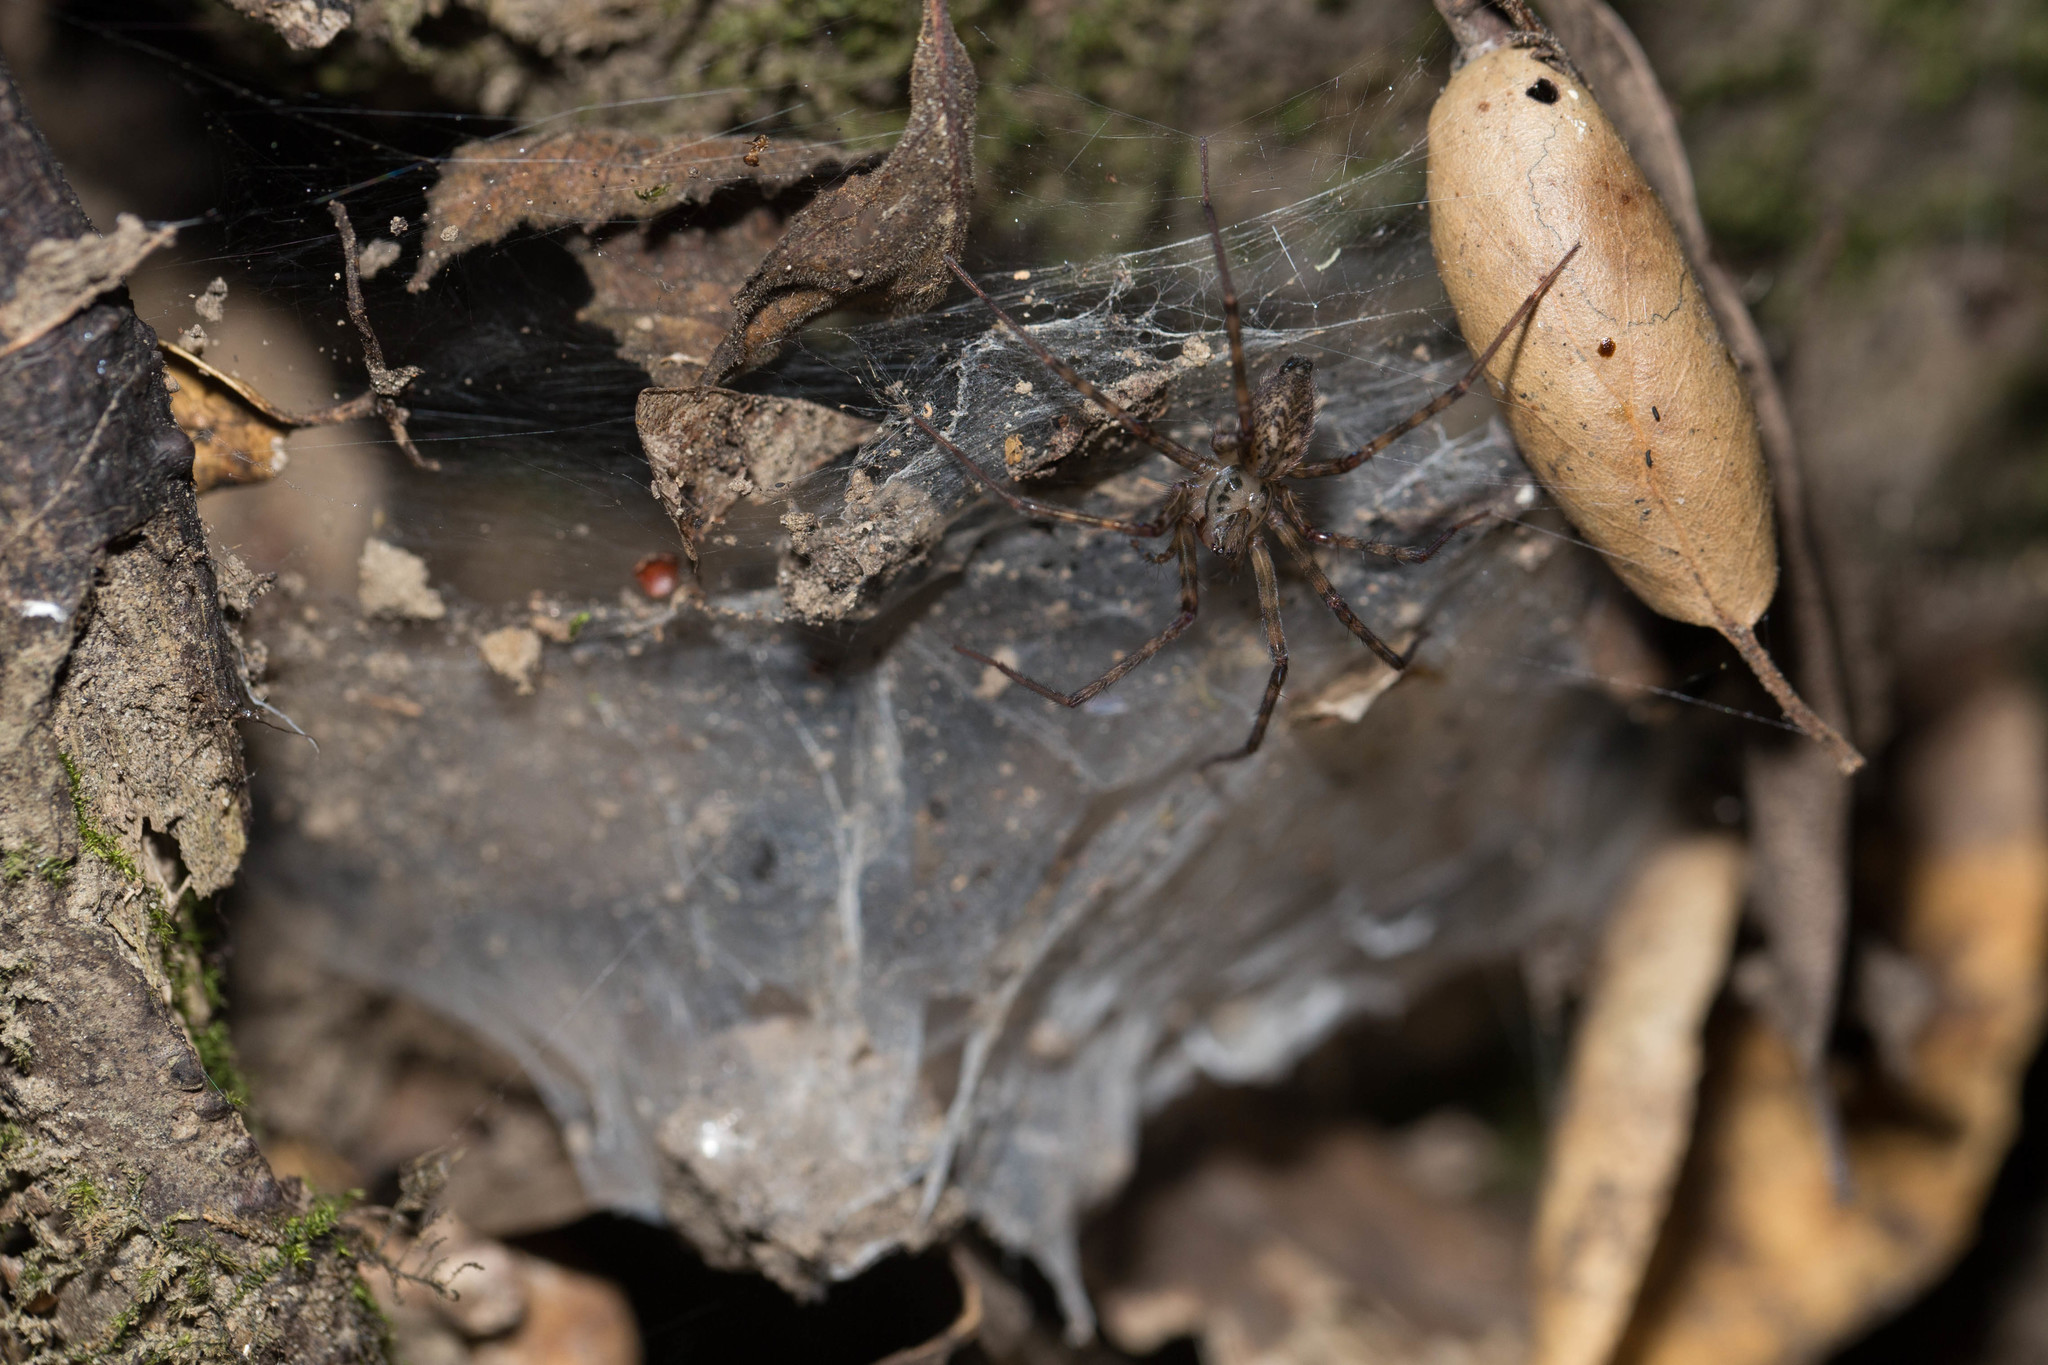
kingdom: Animalia
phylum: Arthropoda
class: Arachnida
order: Araneae
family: Cybaeidae
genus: Calymmaria
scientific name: Calymmaria
